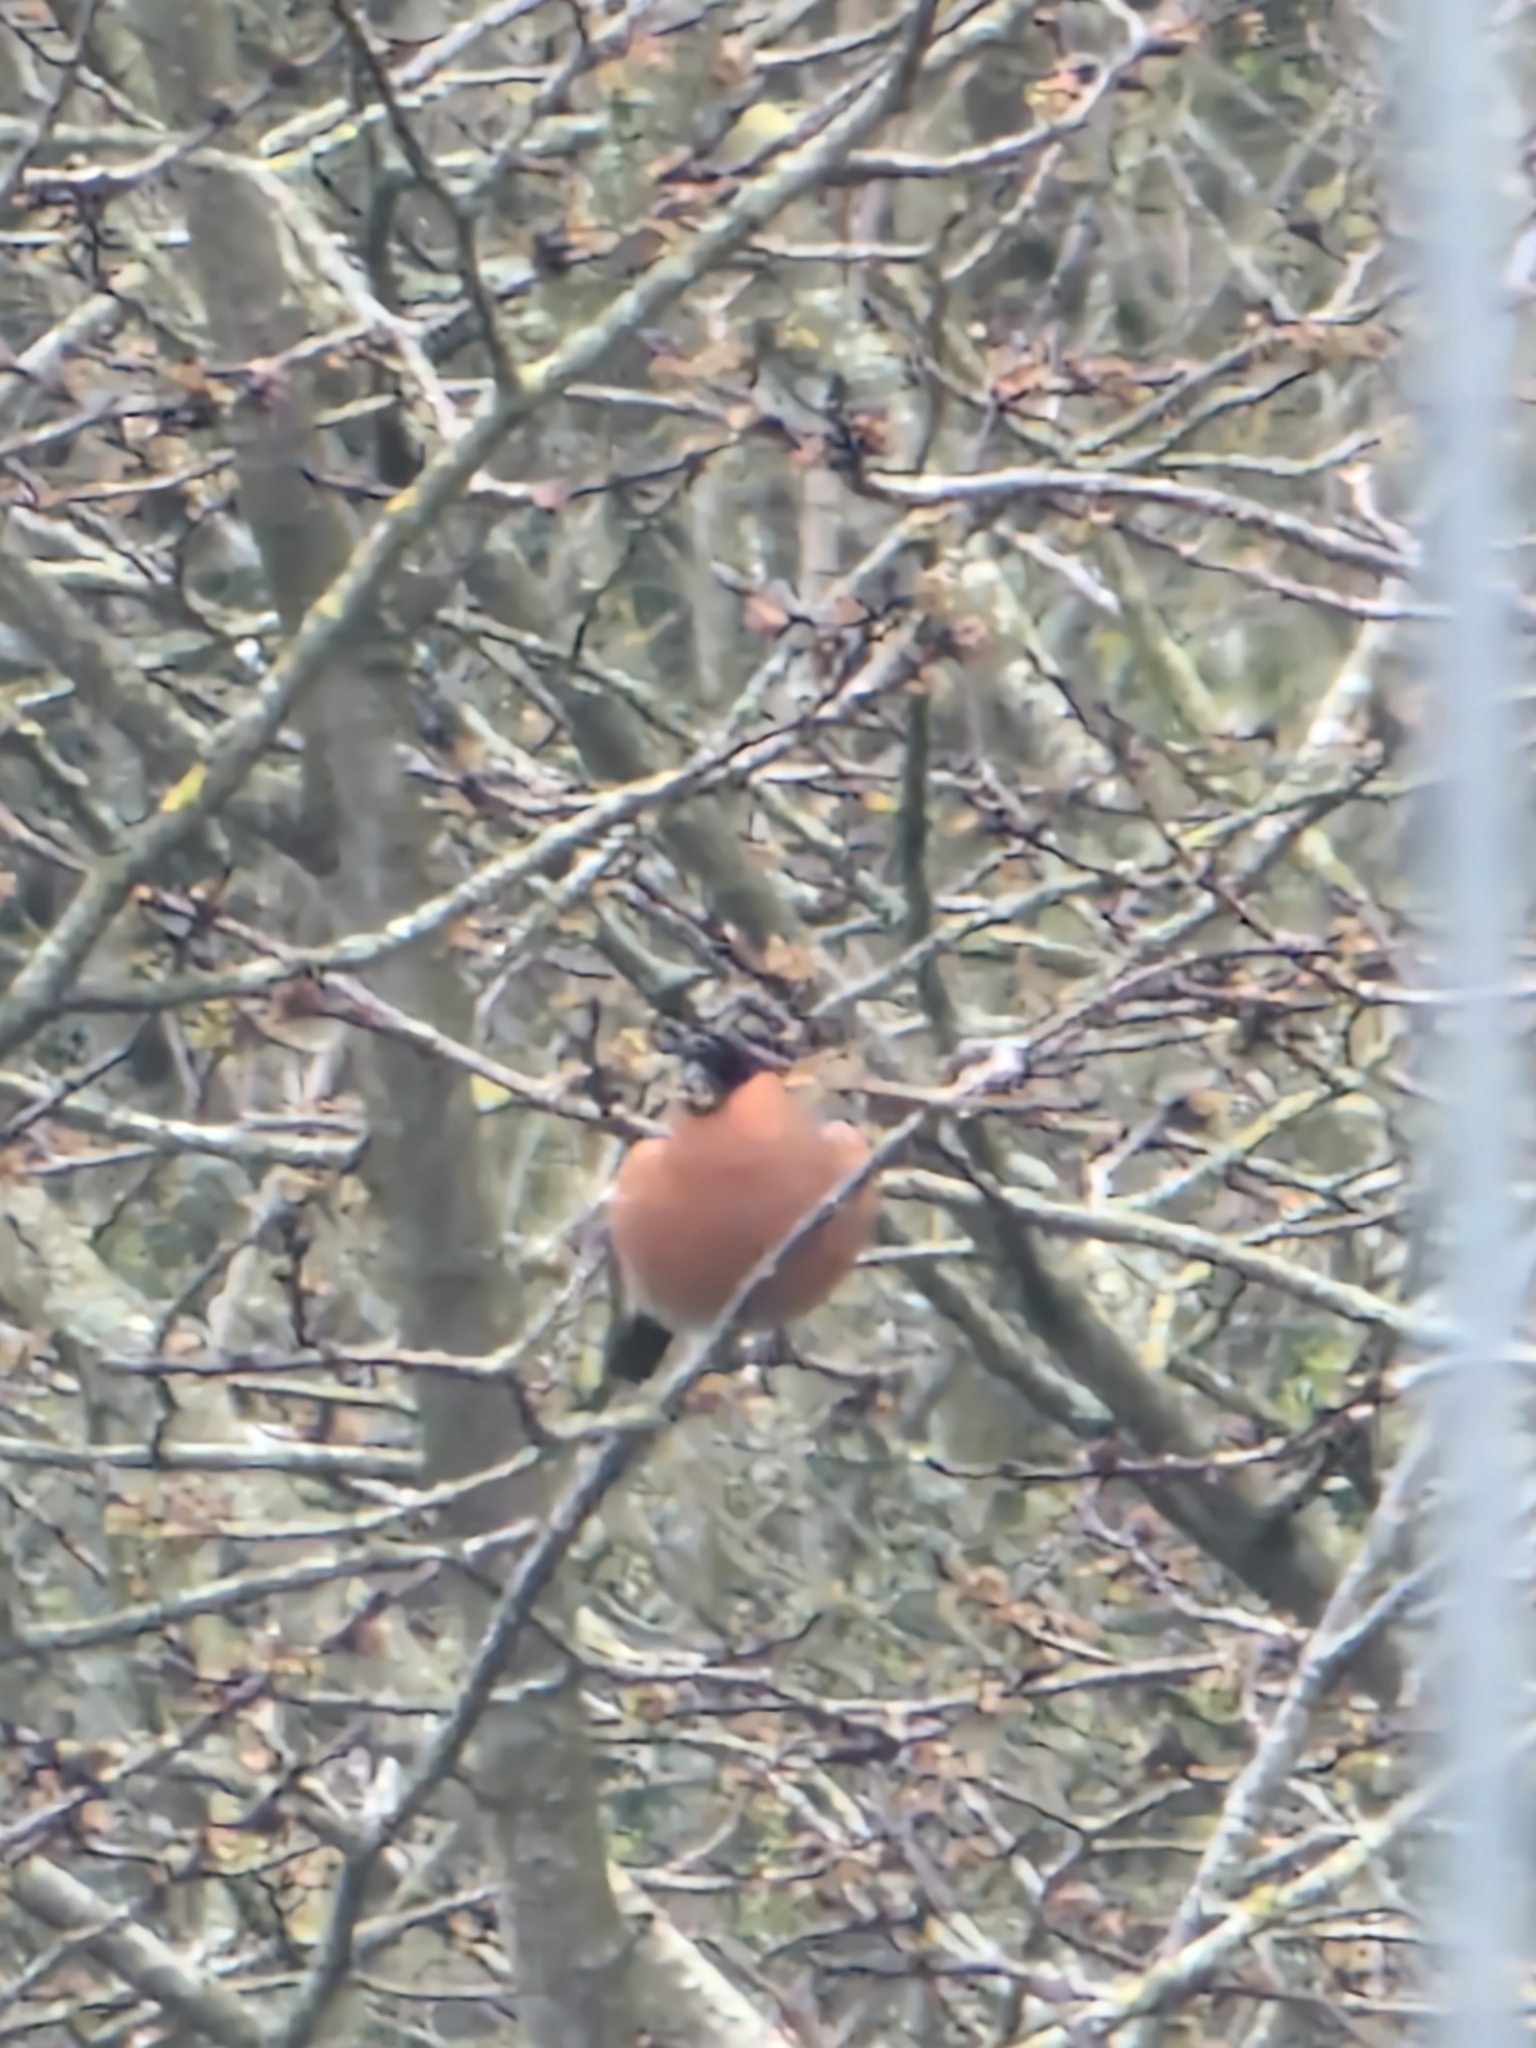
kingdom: Animalia
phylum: Chordata
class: Aves
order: Passeriformes
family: Fringillidae
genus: Pyrrhula
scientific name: Pyrrhula pyrrhula
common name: Eurasian bullfinch
